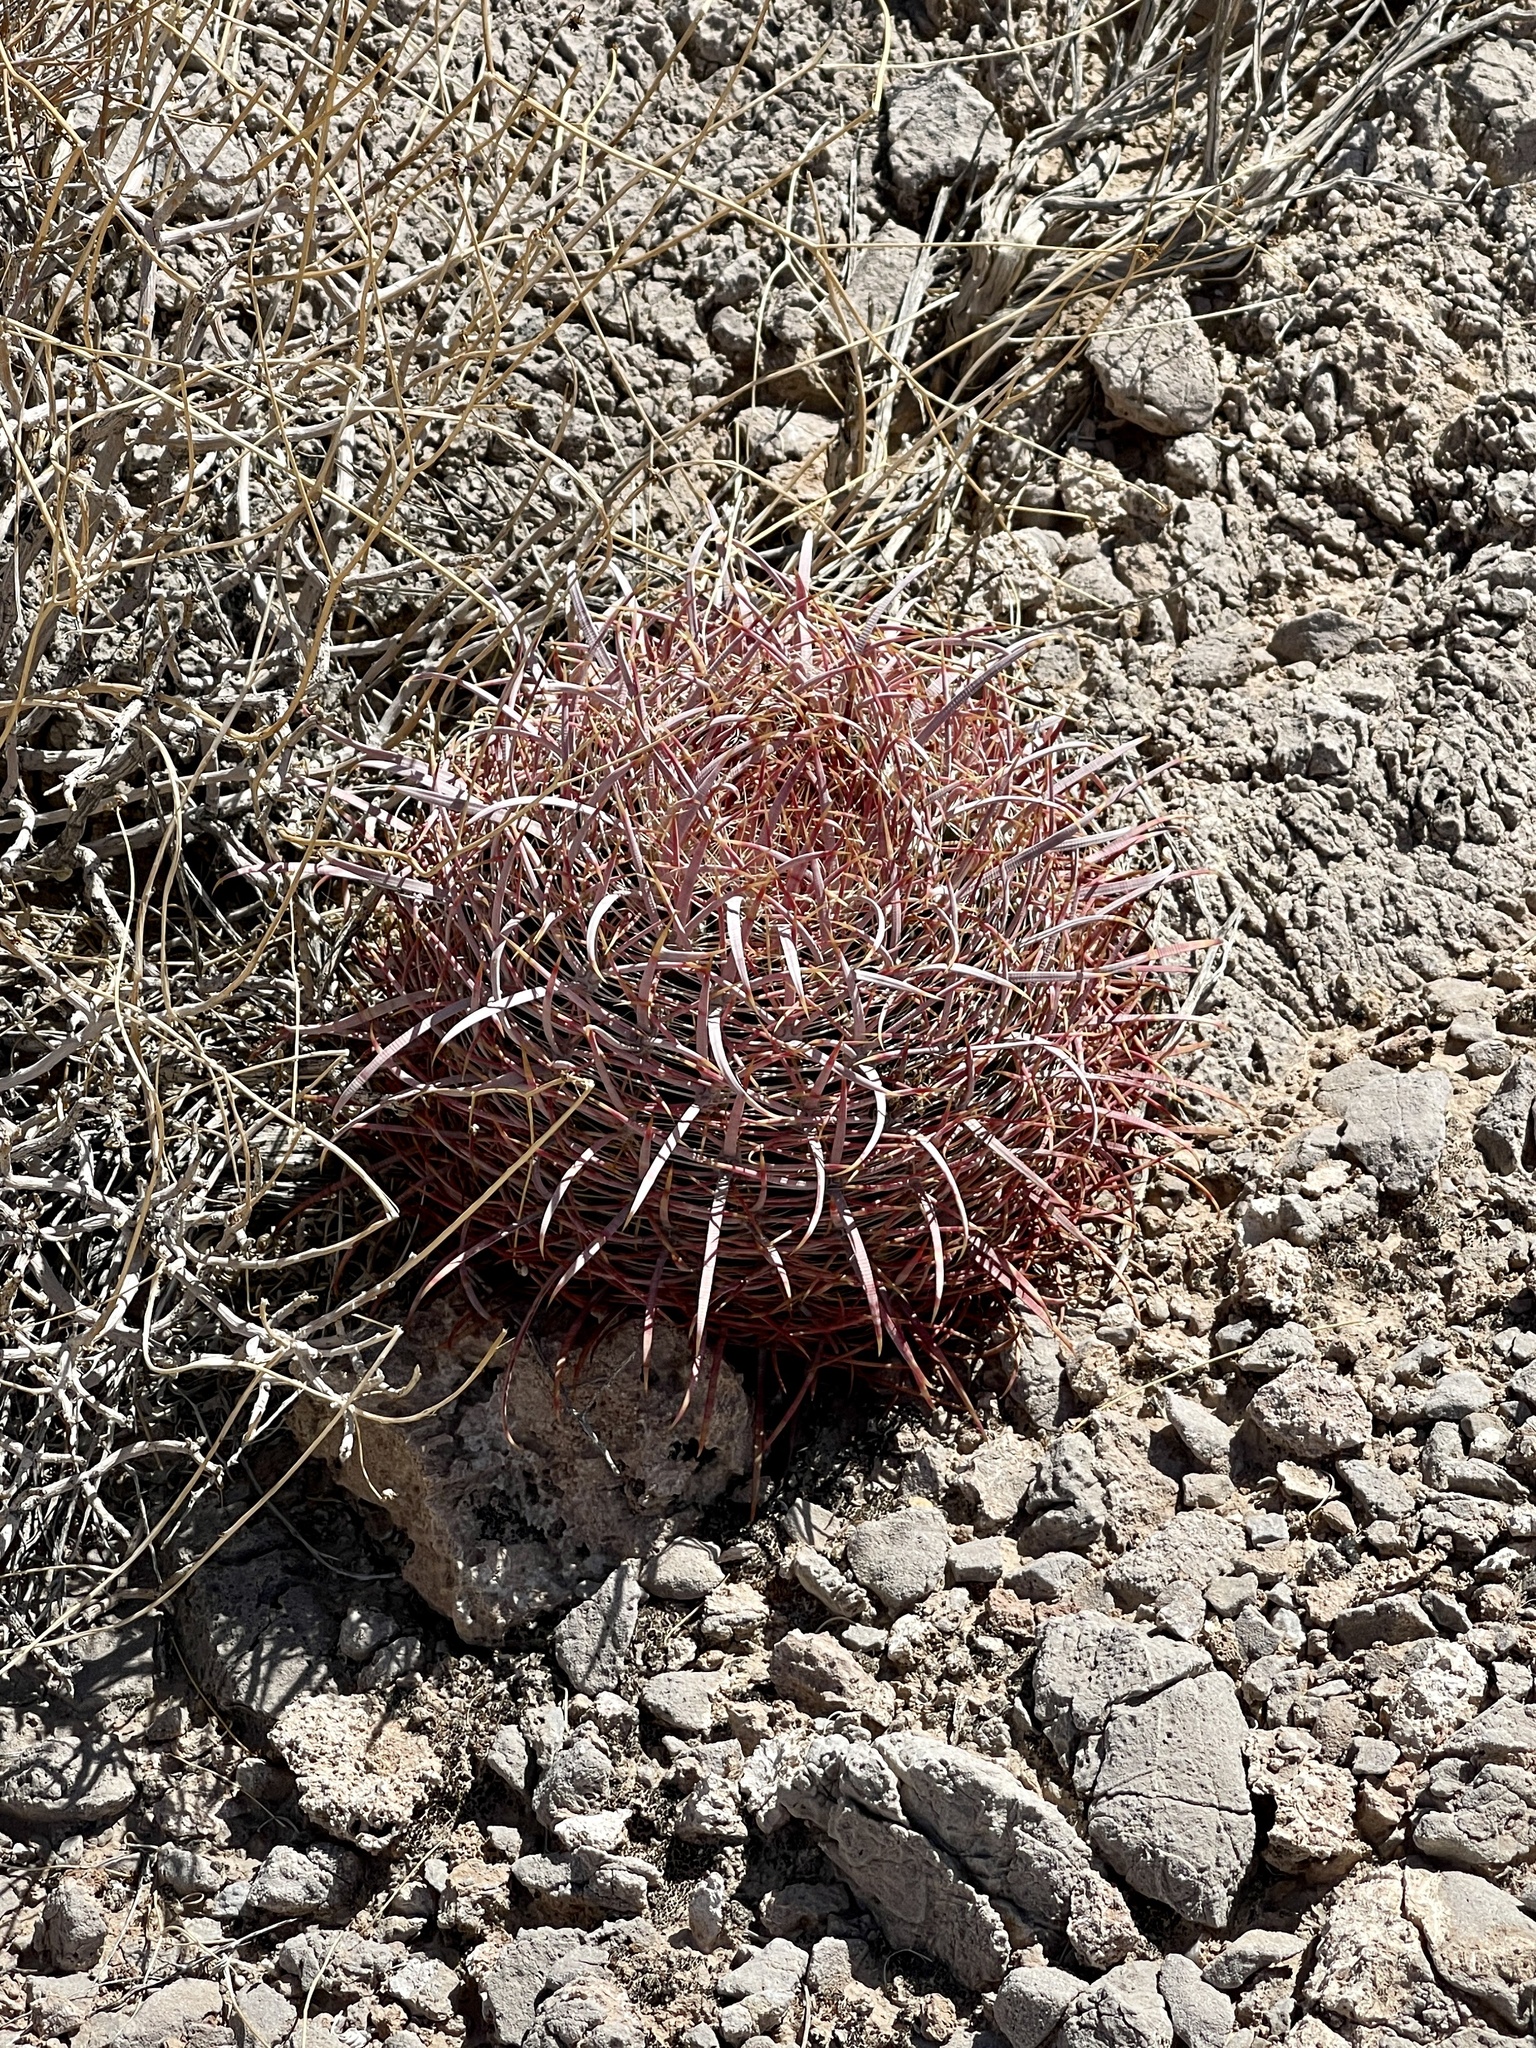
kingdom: Plantae
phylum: Tracheophyta
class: Magnoliopsida
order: Caryophyllales
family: Cactaceae
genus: Ferocactus
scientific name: Ferocactus cylindraceus
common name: California barrel cactus
